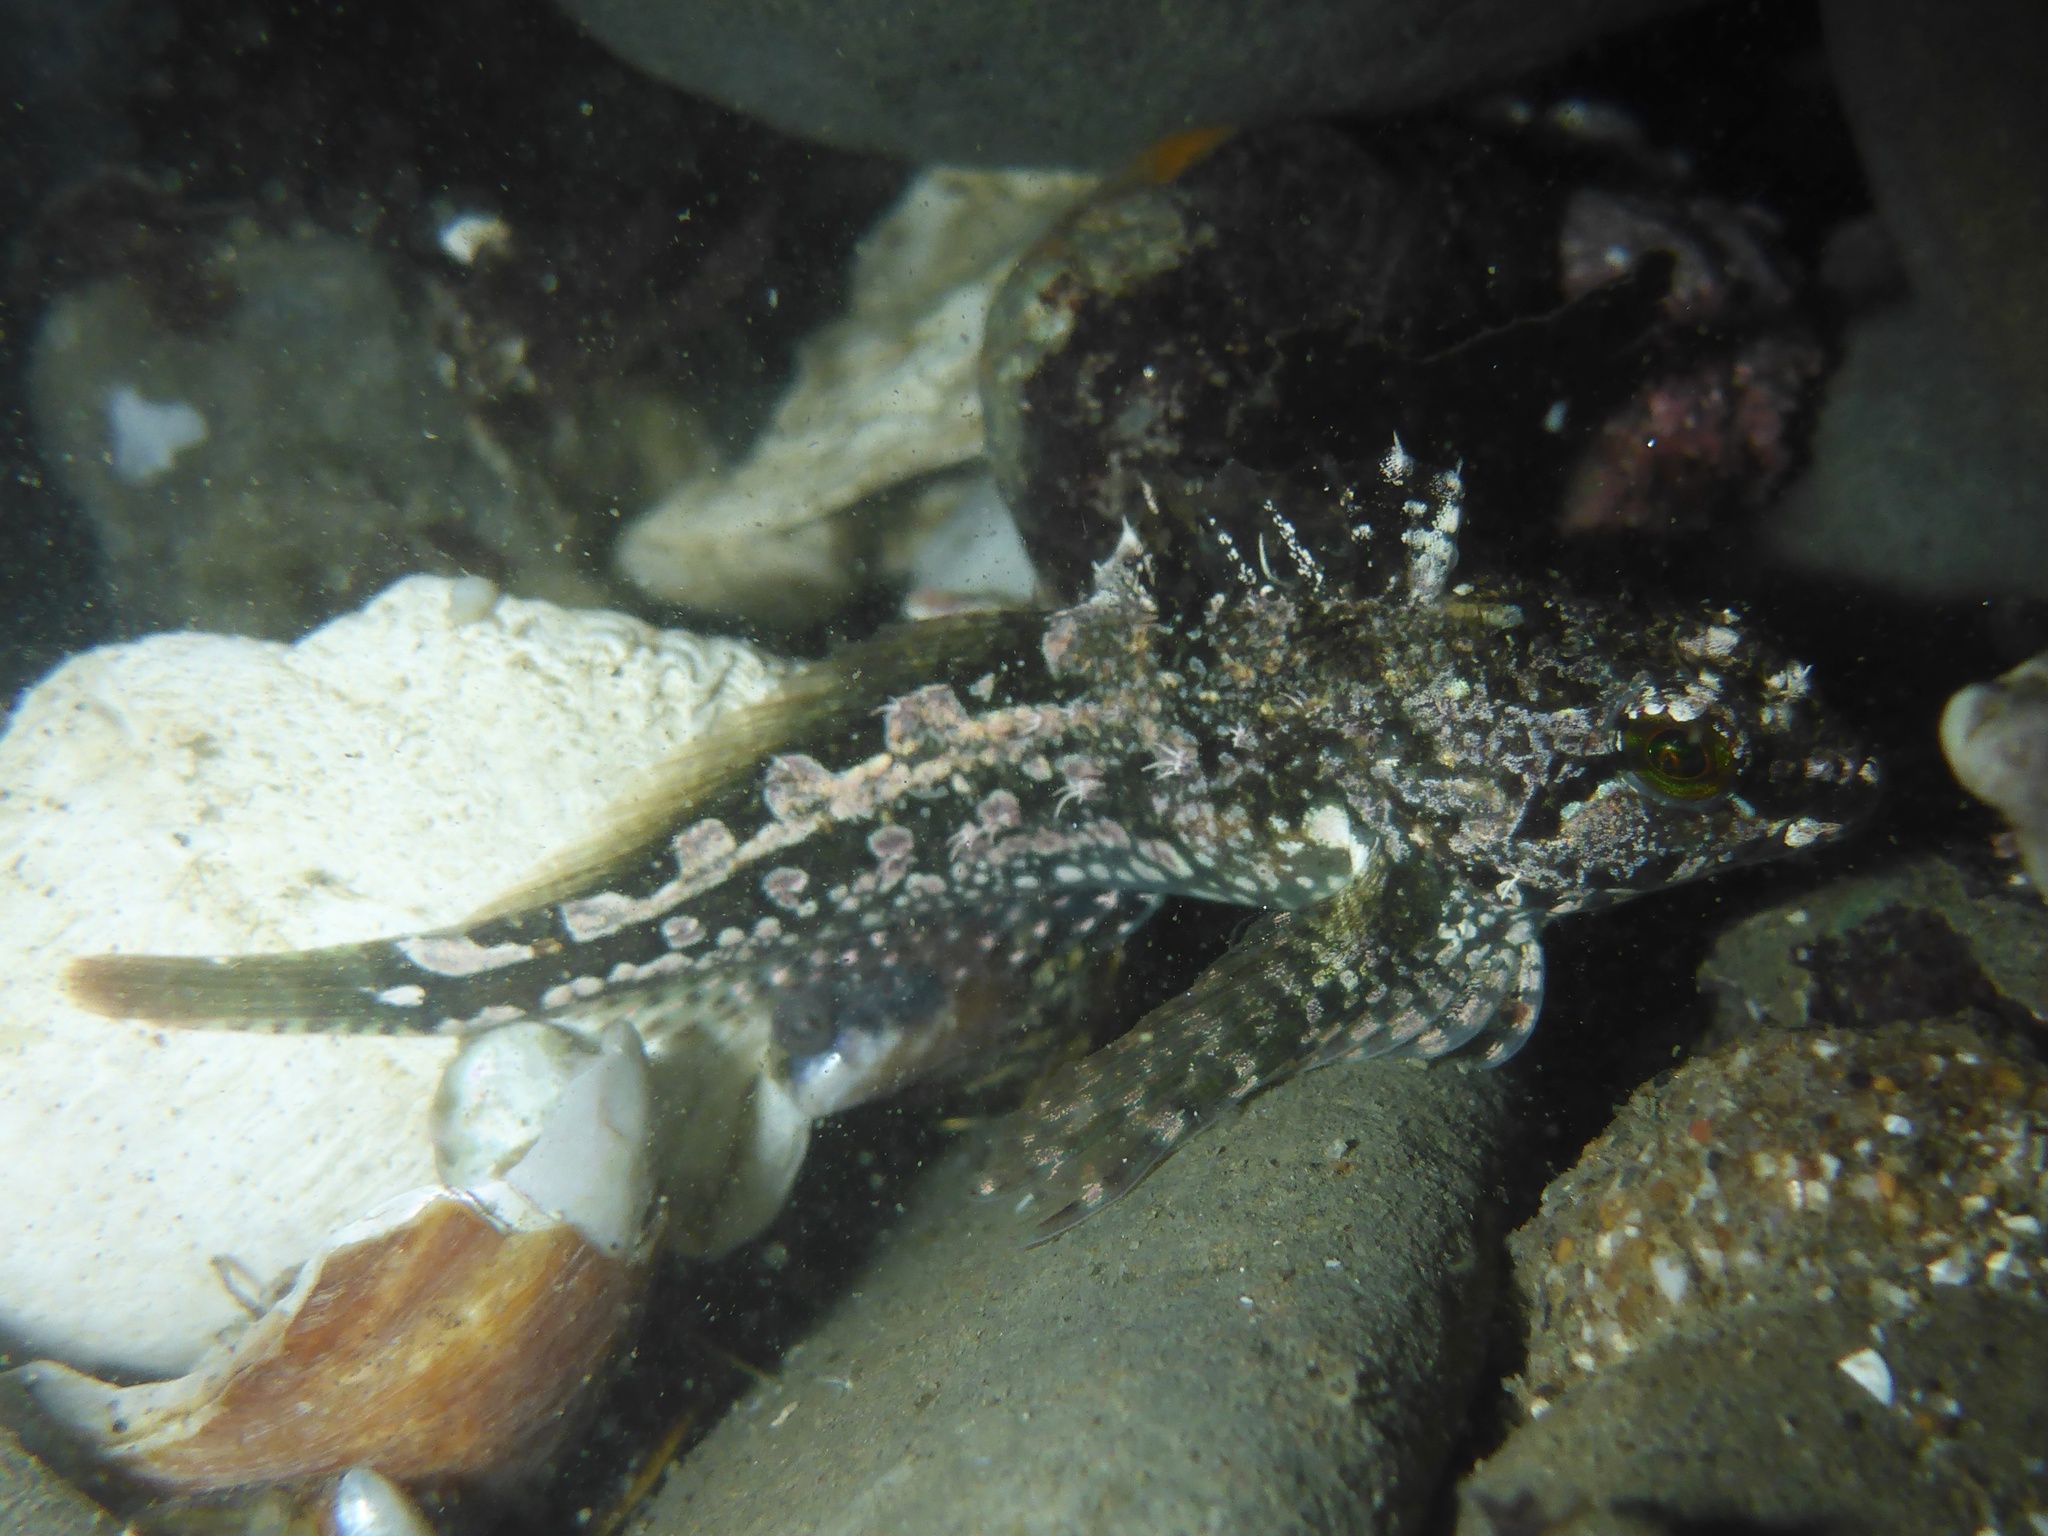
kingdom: Animalia
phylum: Chordata
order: Scorpaeniformes
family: Cottidae
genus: Oligocottus
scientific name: Oligocottus snyderi
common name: Fluffy sculpin
